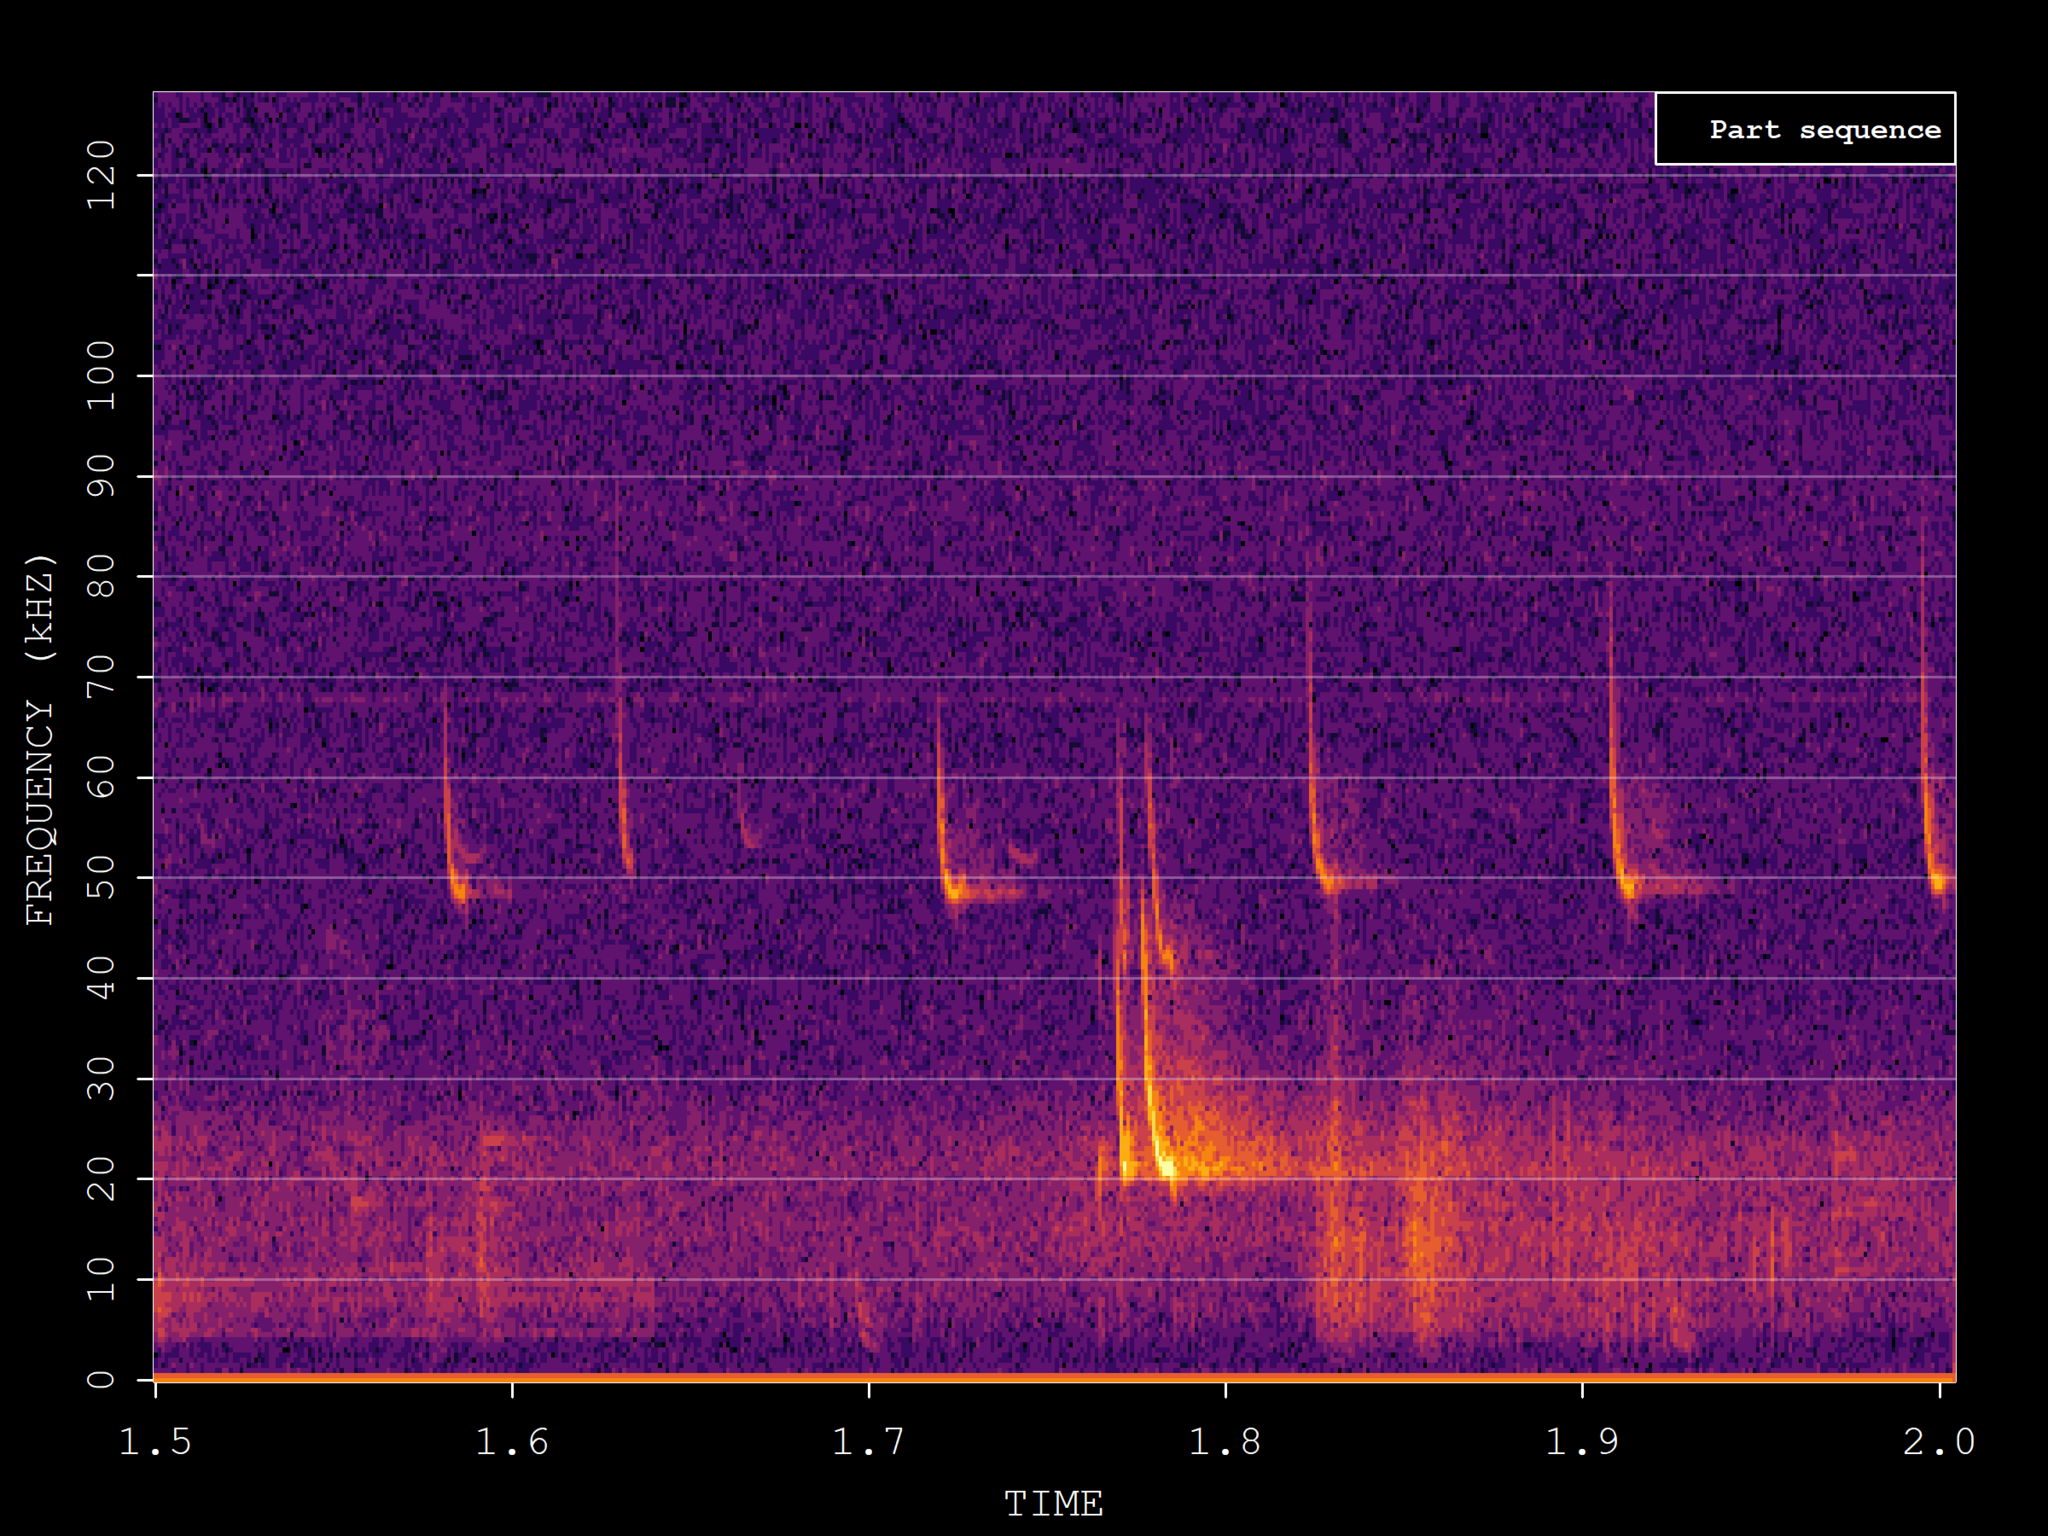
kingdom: Animalia
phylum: Chordata
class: Mammalia
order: Chiroptera
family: Vespertilionidae
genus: Pipistrellus
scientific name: Pipistrellus pipistrellus
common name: Common pipistrelle
